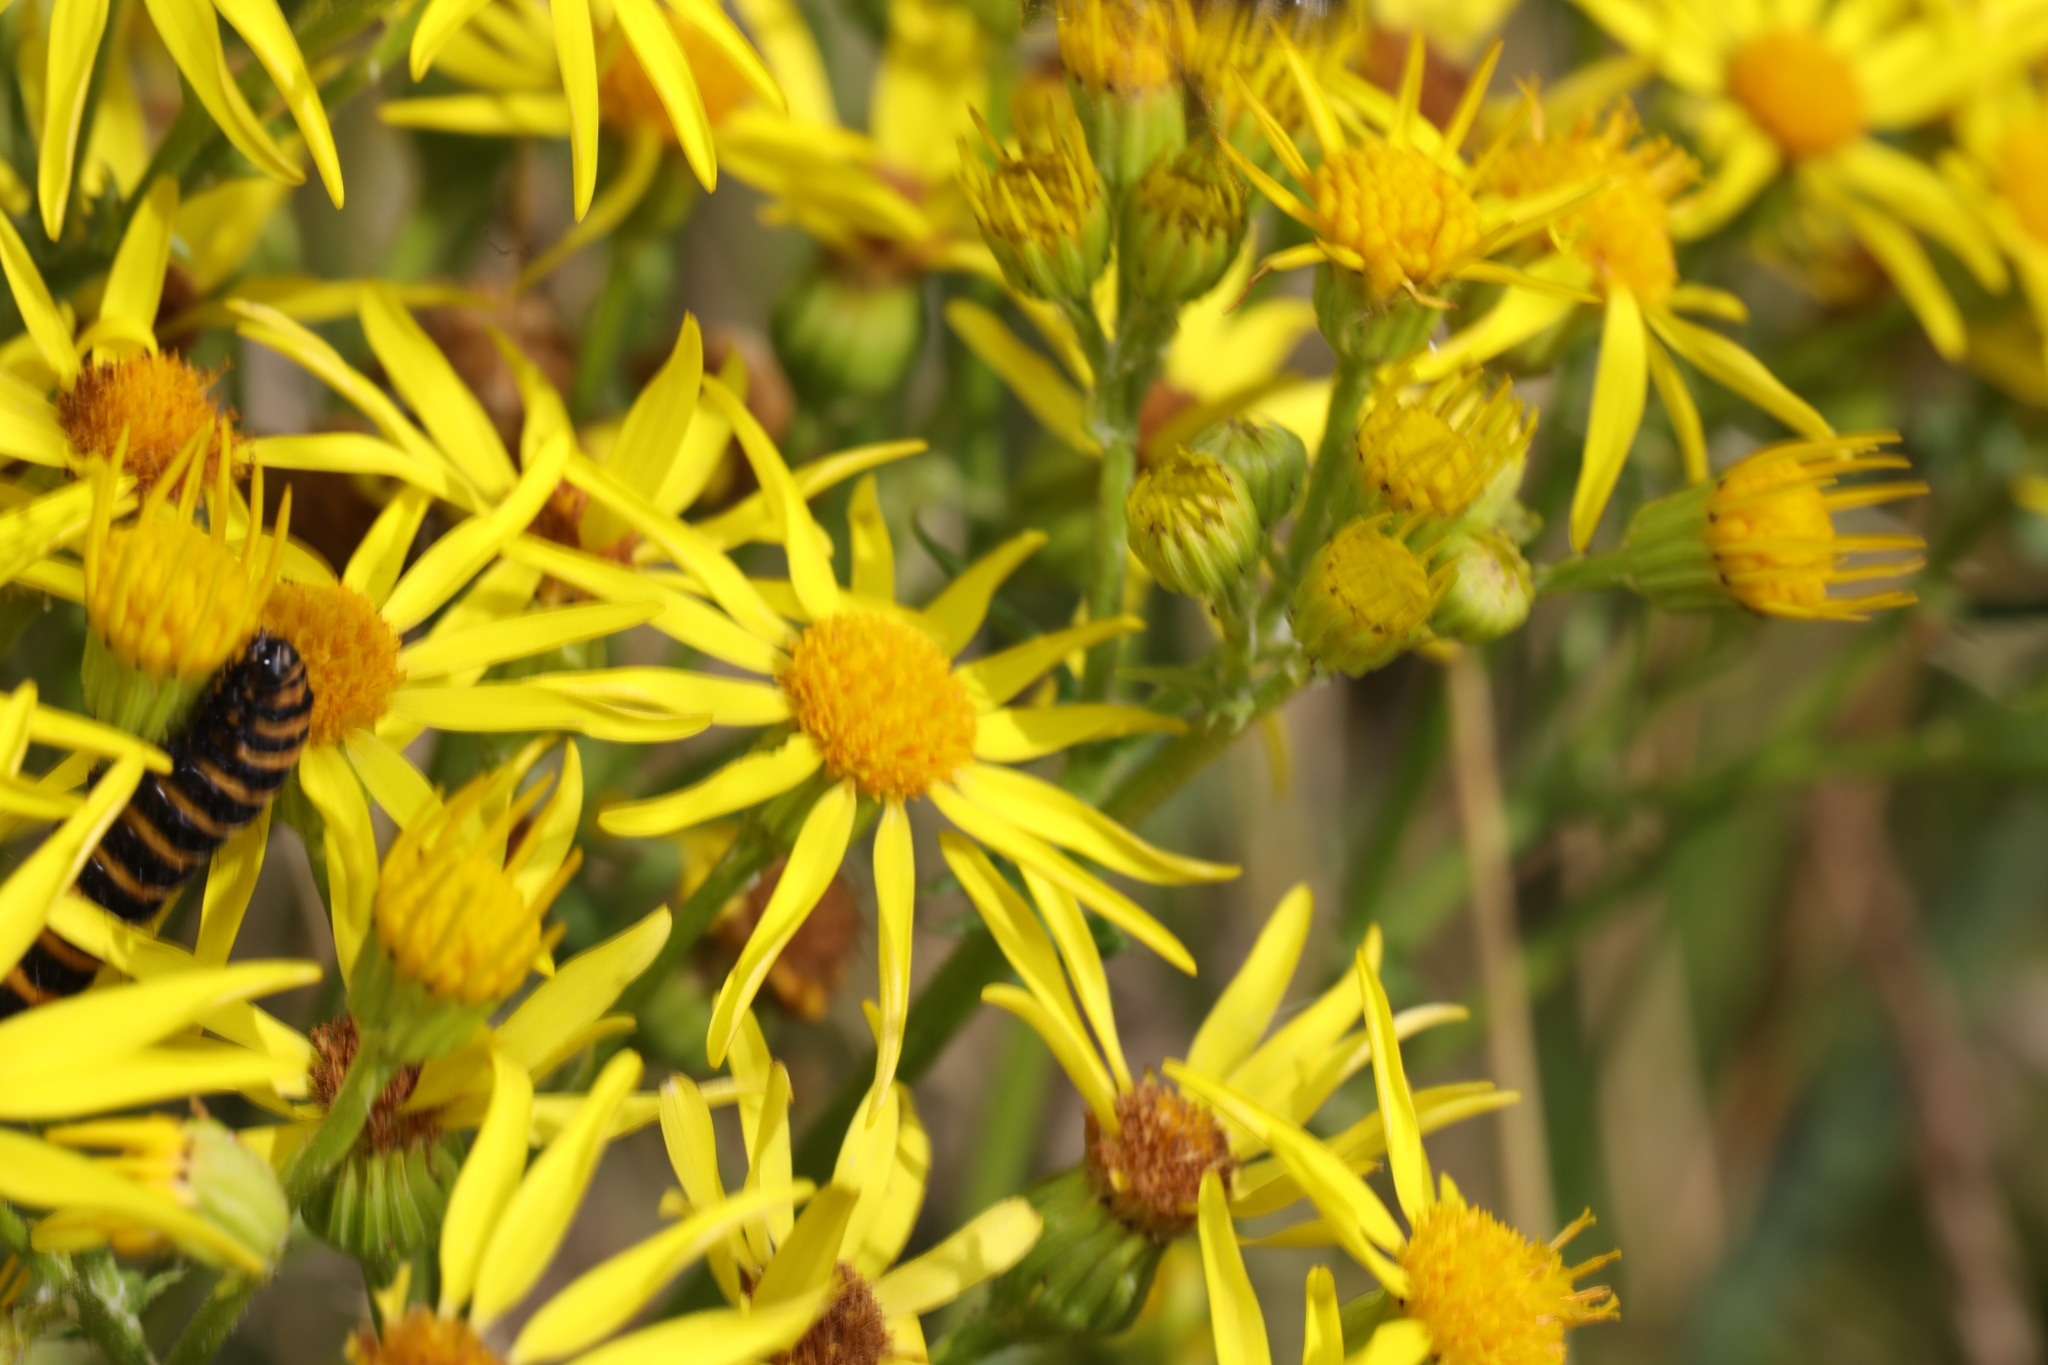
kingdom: Plantae
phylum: Tracheophyta
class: Magnoliopsida
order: Asterales
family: Asteraceae
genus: Jacobaea
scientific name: Jacobaea vulgaris
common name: Stinking willie
